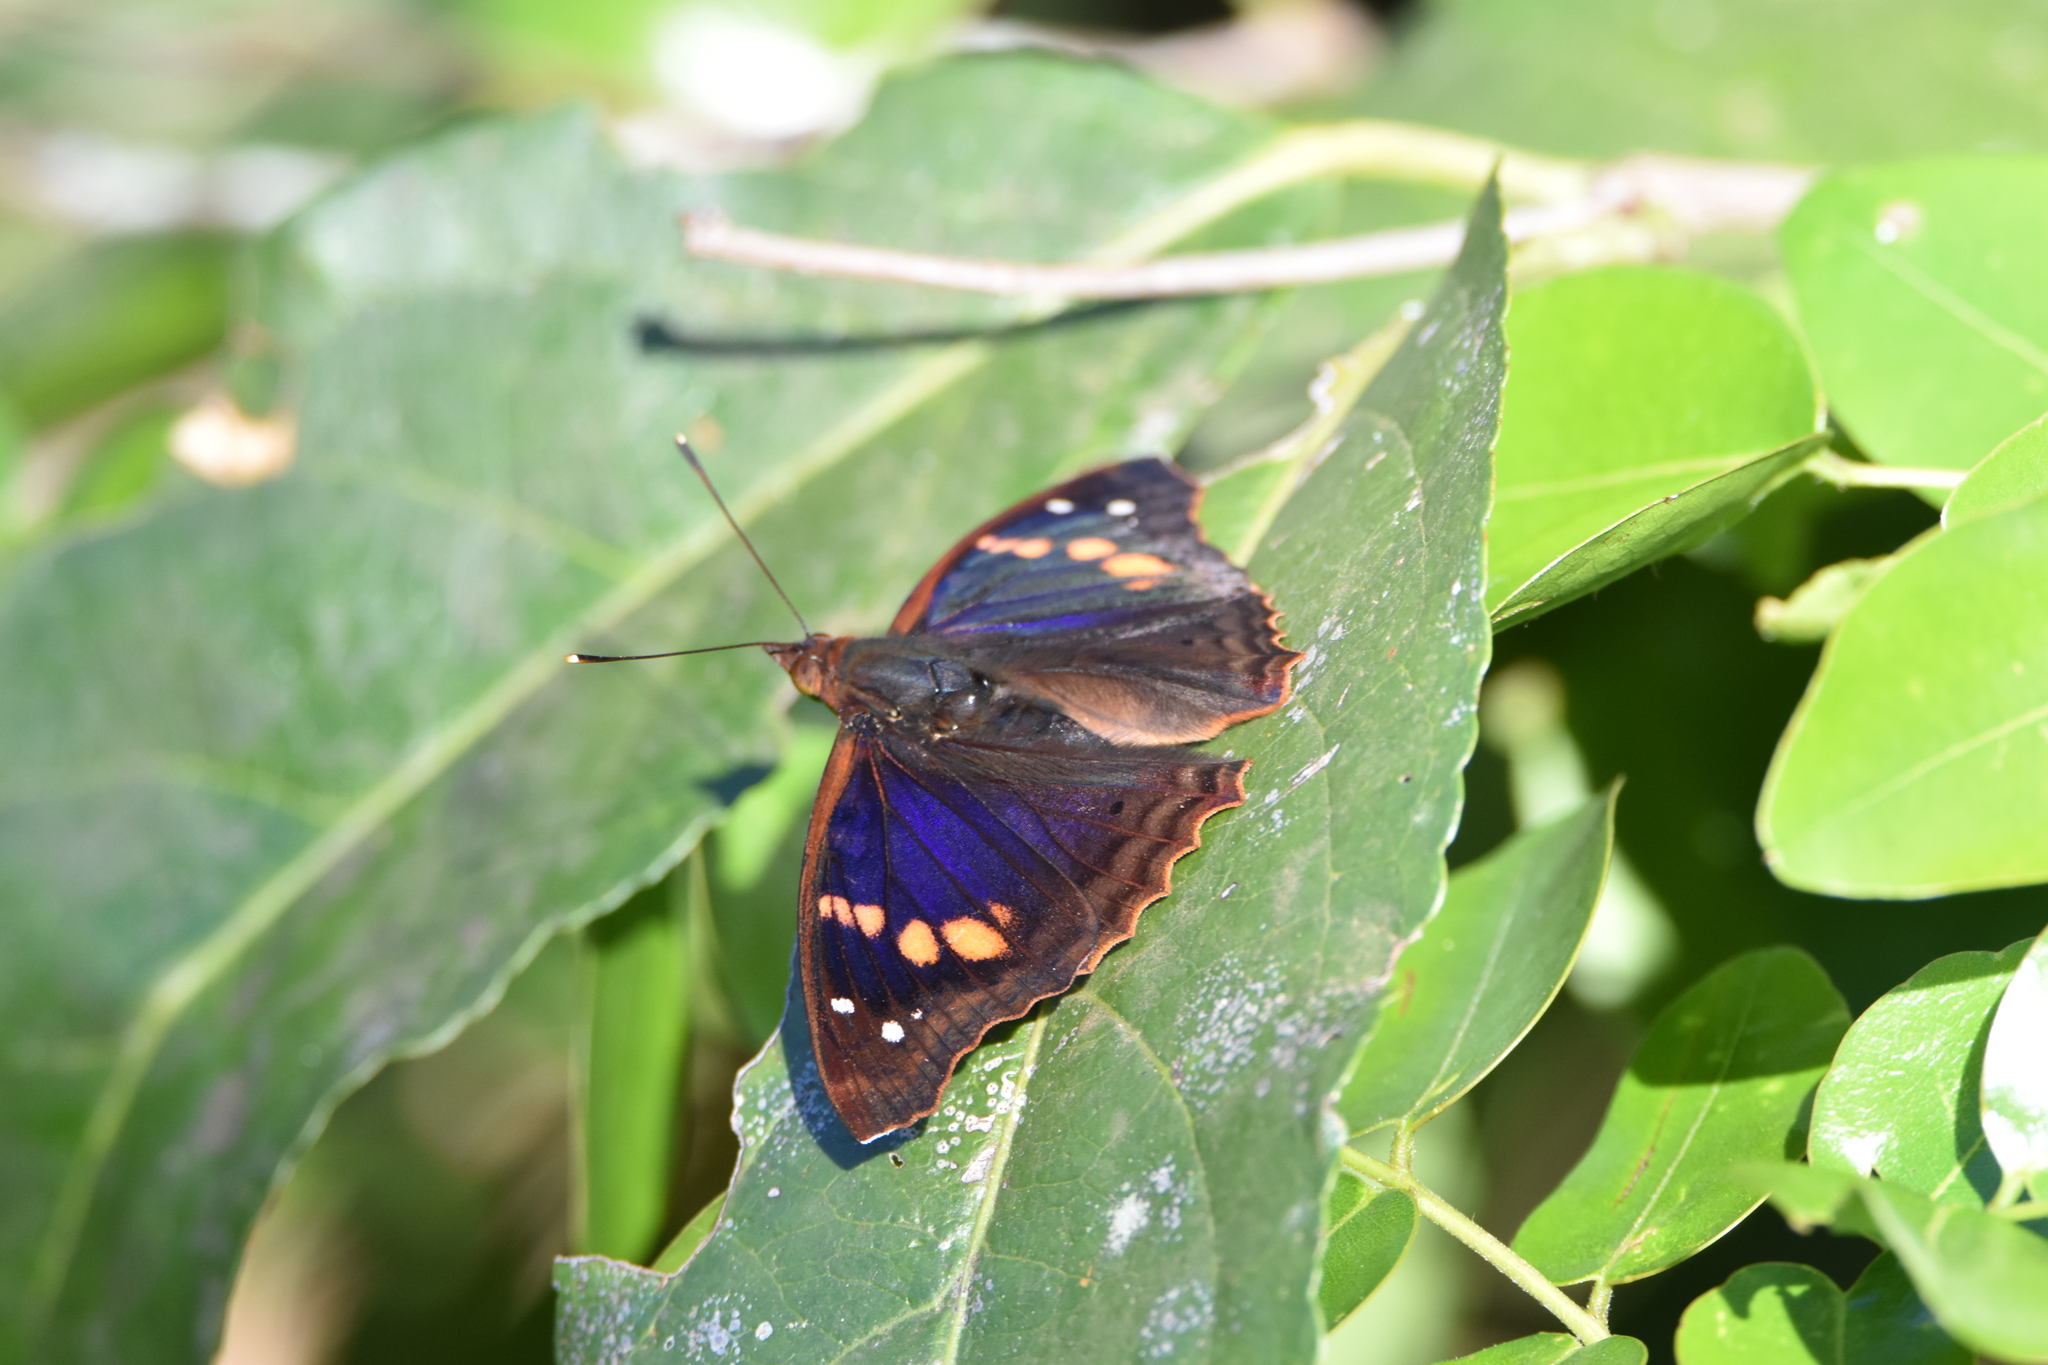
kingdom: Animalia
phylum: Arthropoda
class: Insecta
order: Lepidoptera
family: Nymphalidae
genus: Doxocopa
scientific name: Doxocopa agathina
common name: Agathina emperor
